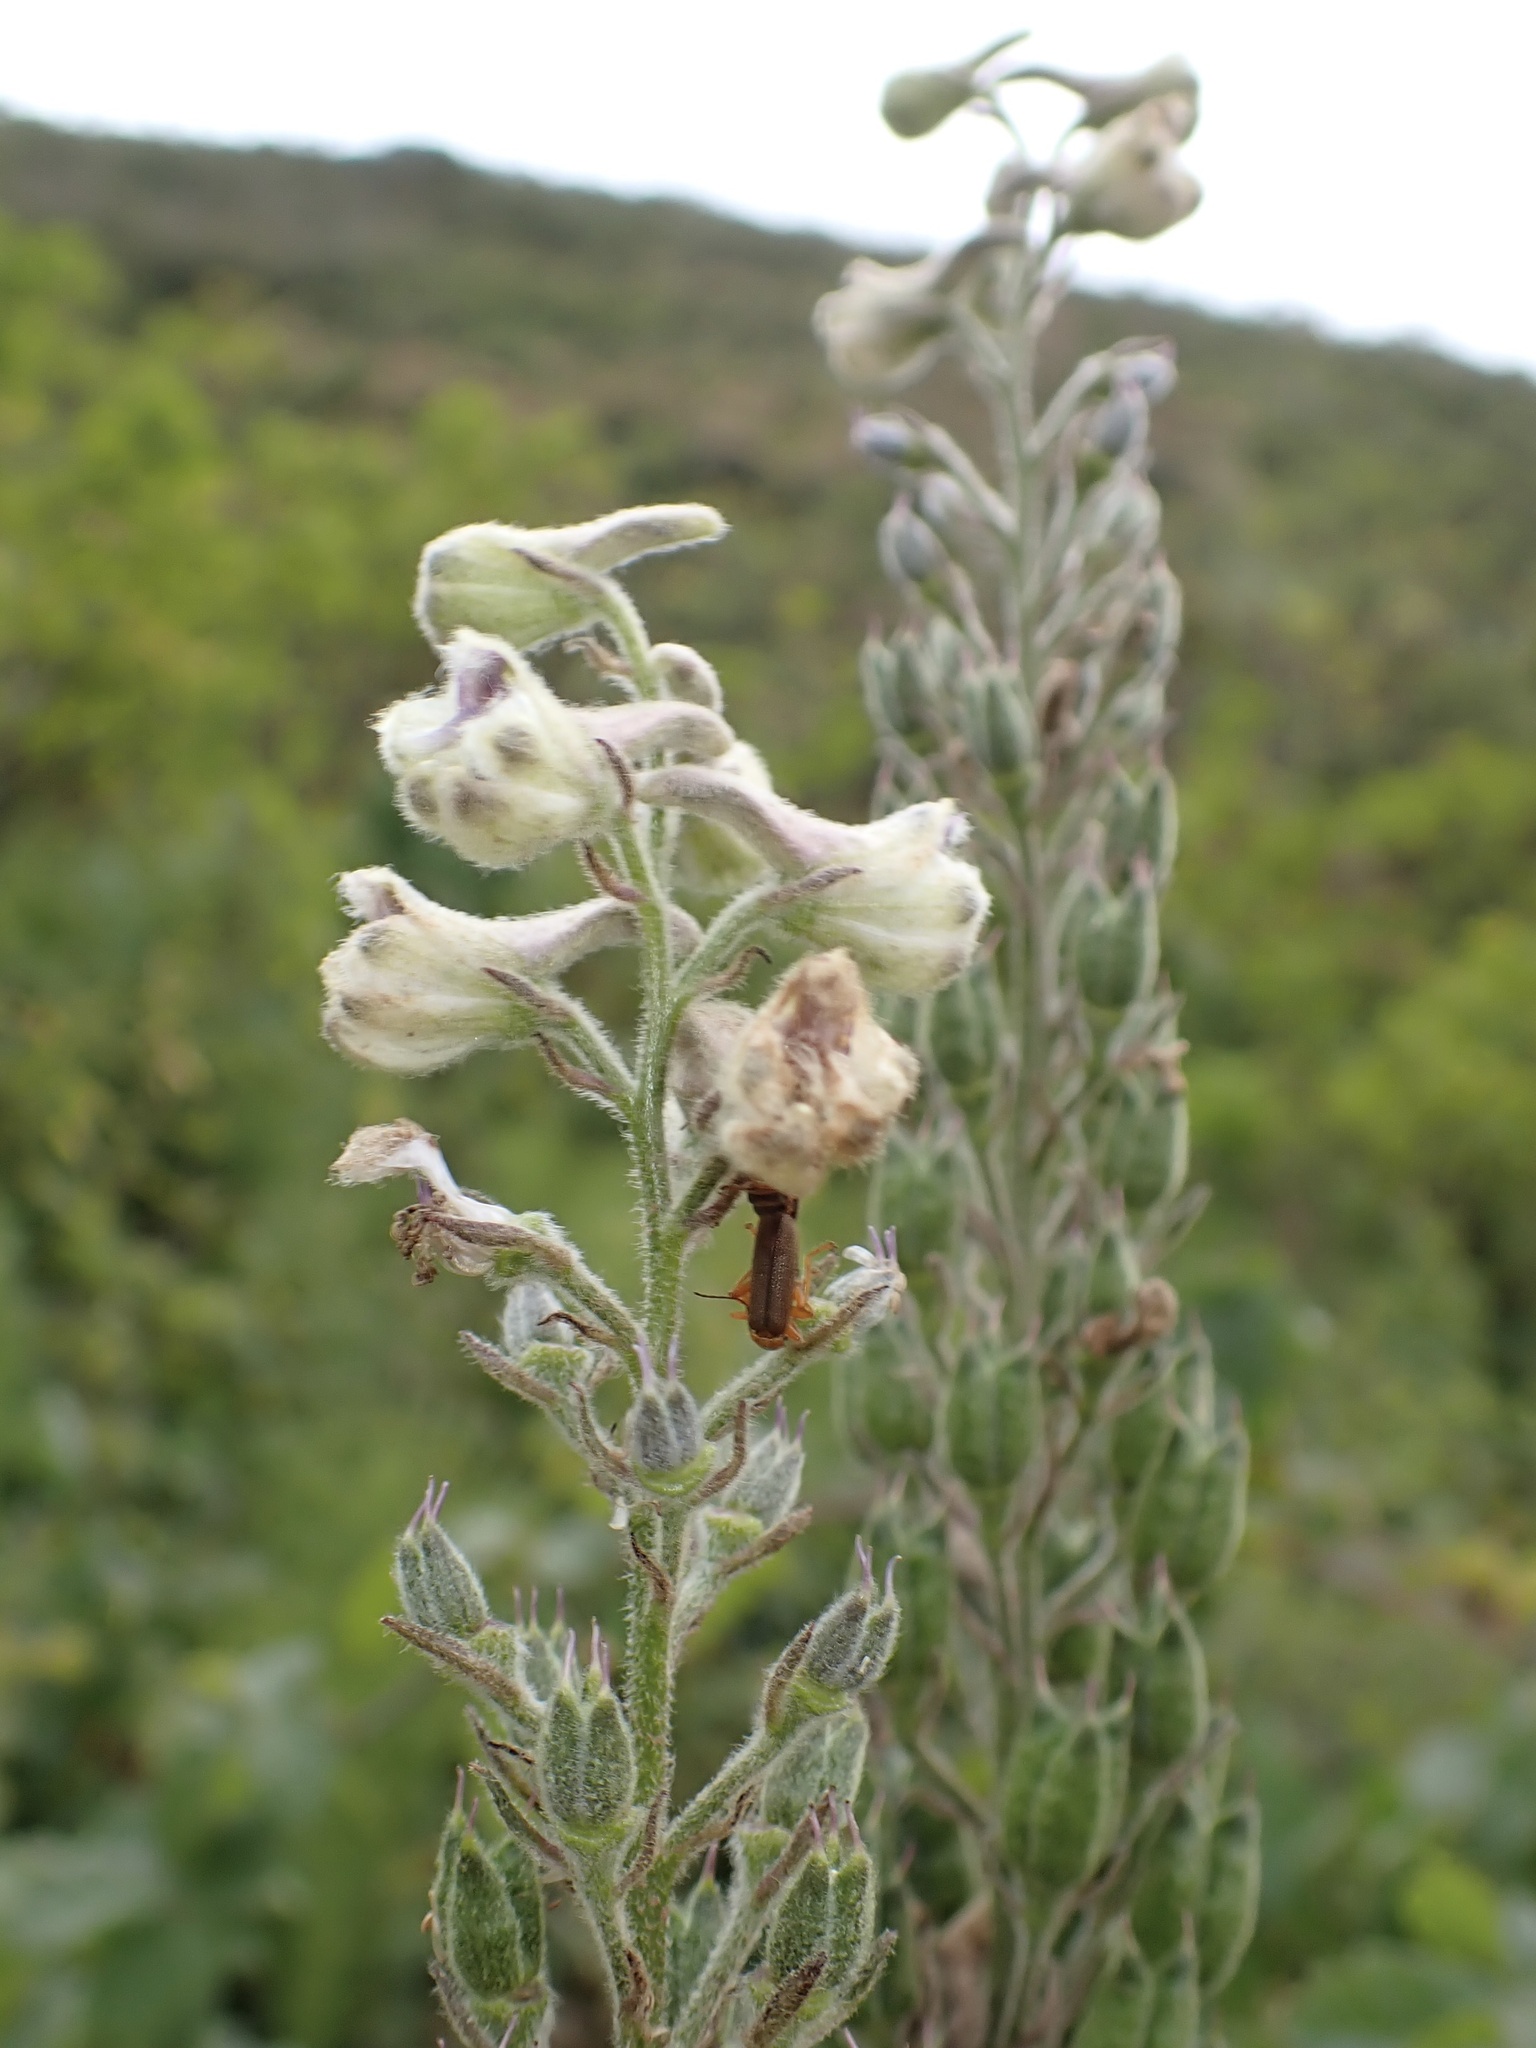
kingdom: Plantae
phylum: Tracheophyta
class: Magnoliopsida
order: Ranunculales
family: Ranunculaceae
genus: Delphinium
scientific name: Delphinium californicum
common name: California larkspur
